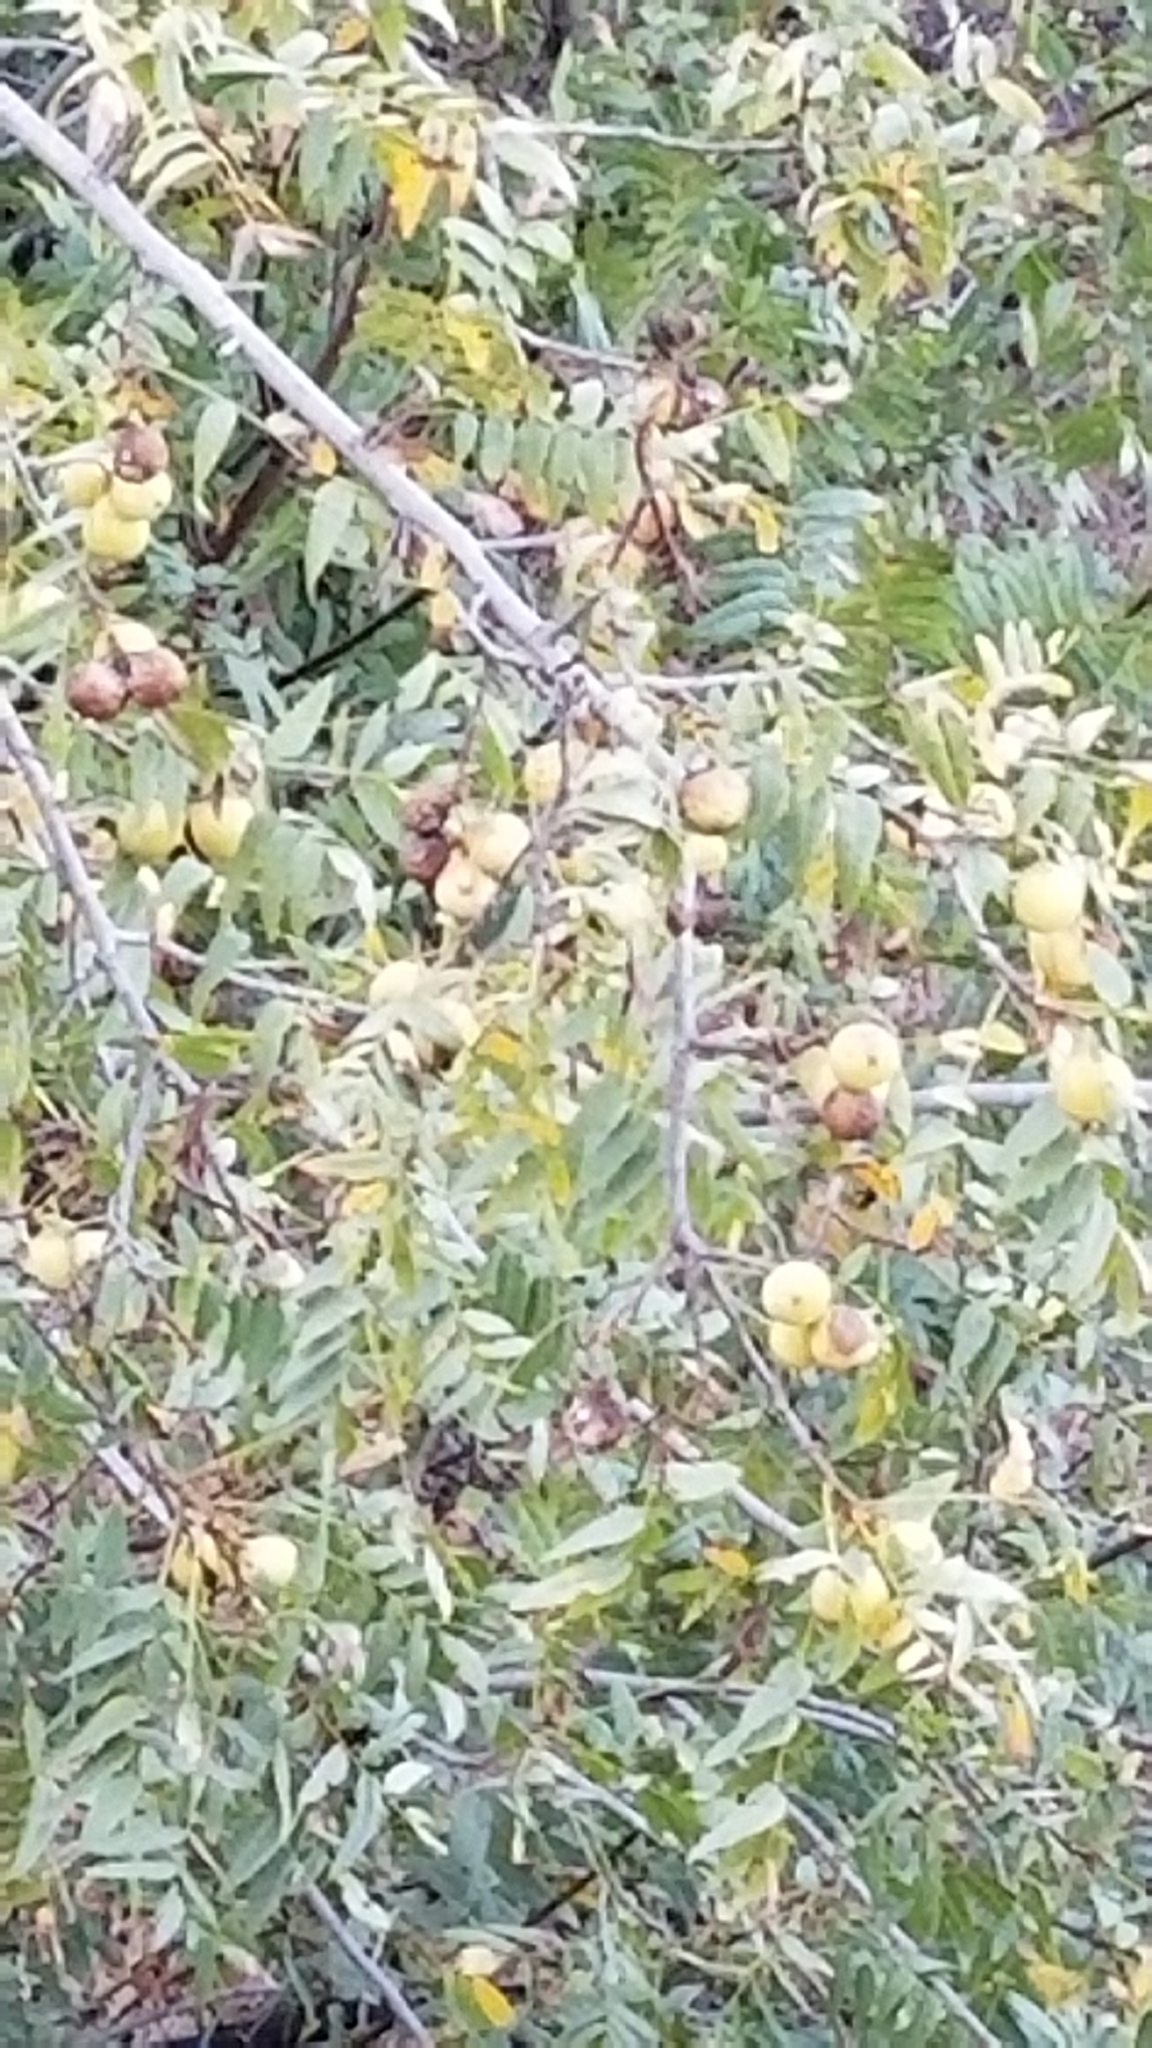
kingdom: Plantae
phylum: Tracheophyta
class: Magnoliopsida
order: Fagales
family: Juglandaceae
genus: Juglans
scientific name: Juglans californica
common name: Southern california black walnut
